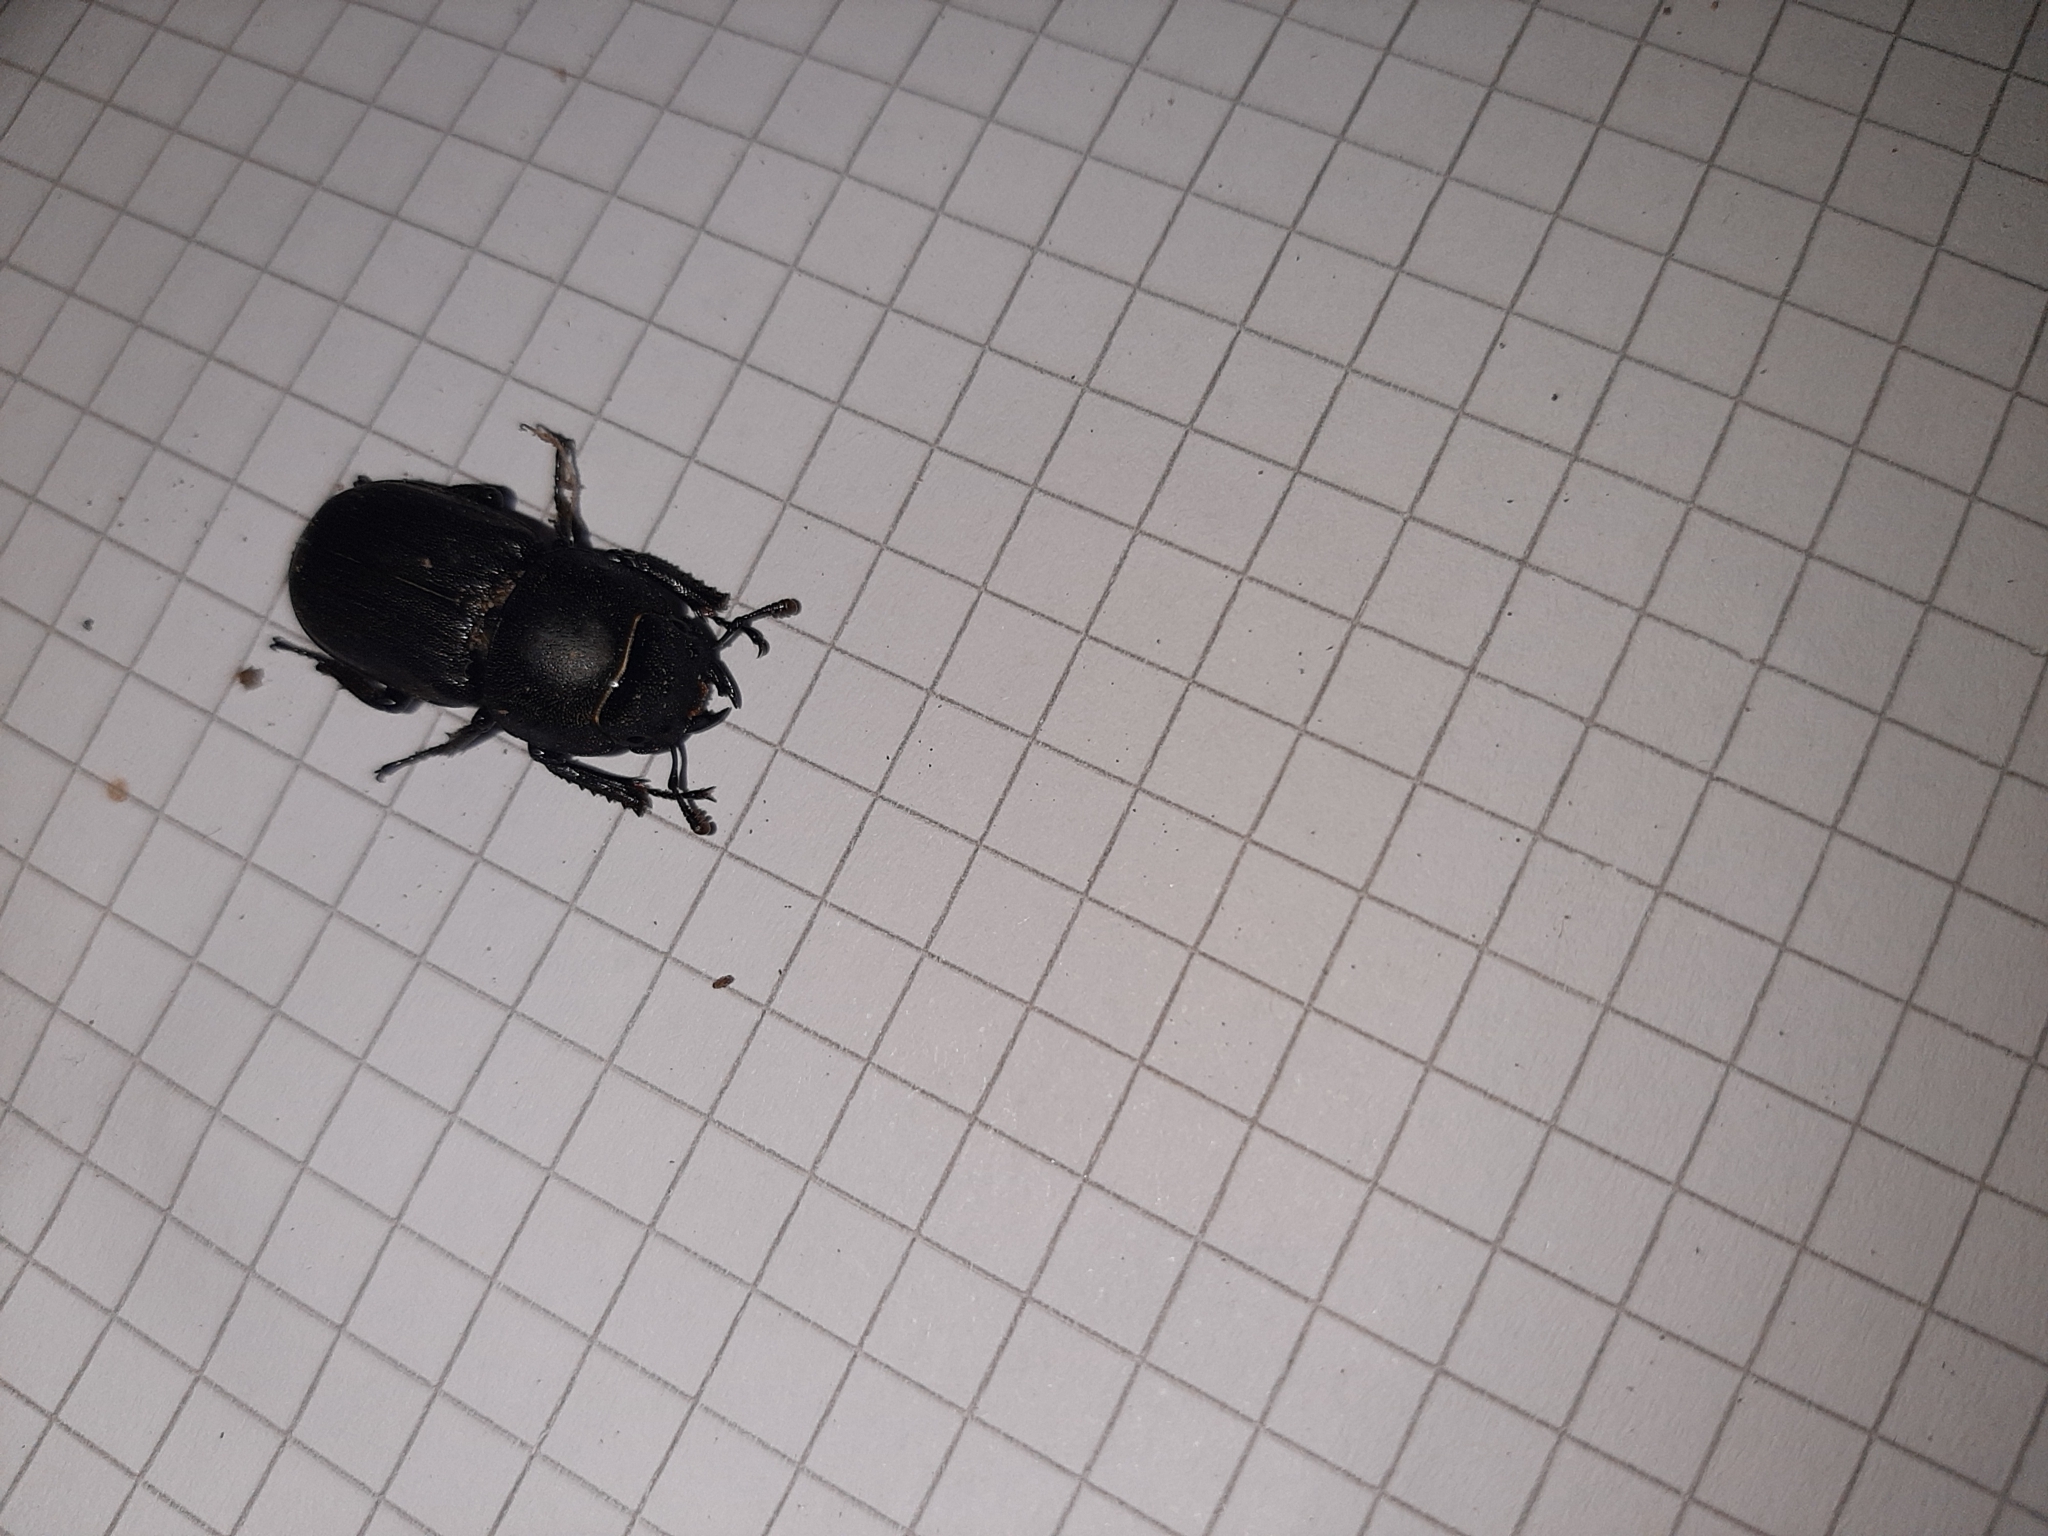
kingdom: Animalia
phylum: Arthropoda
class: Insecta
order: Coleoptera
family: Lucanidae
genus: Dorcus
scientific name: Dorcus parallelipipedus
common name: Lesser stag beetle
